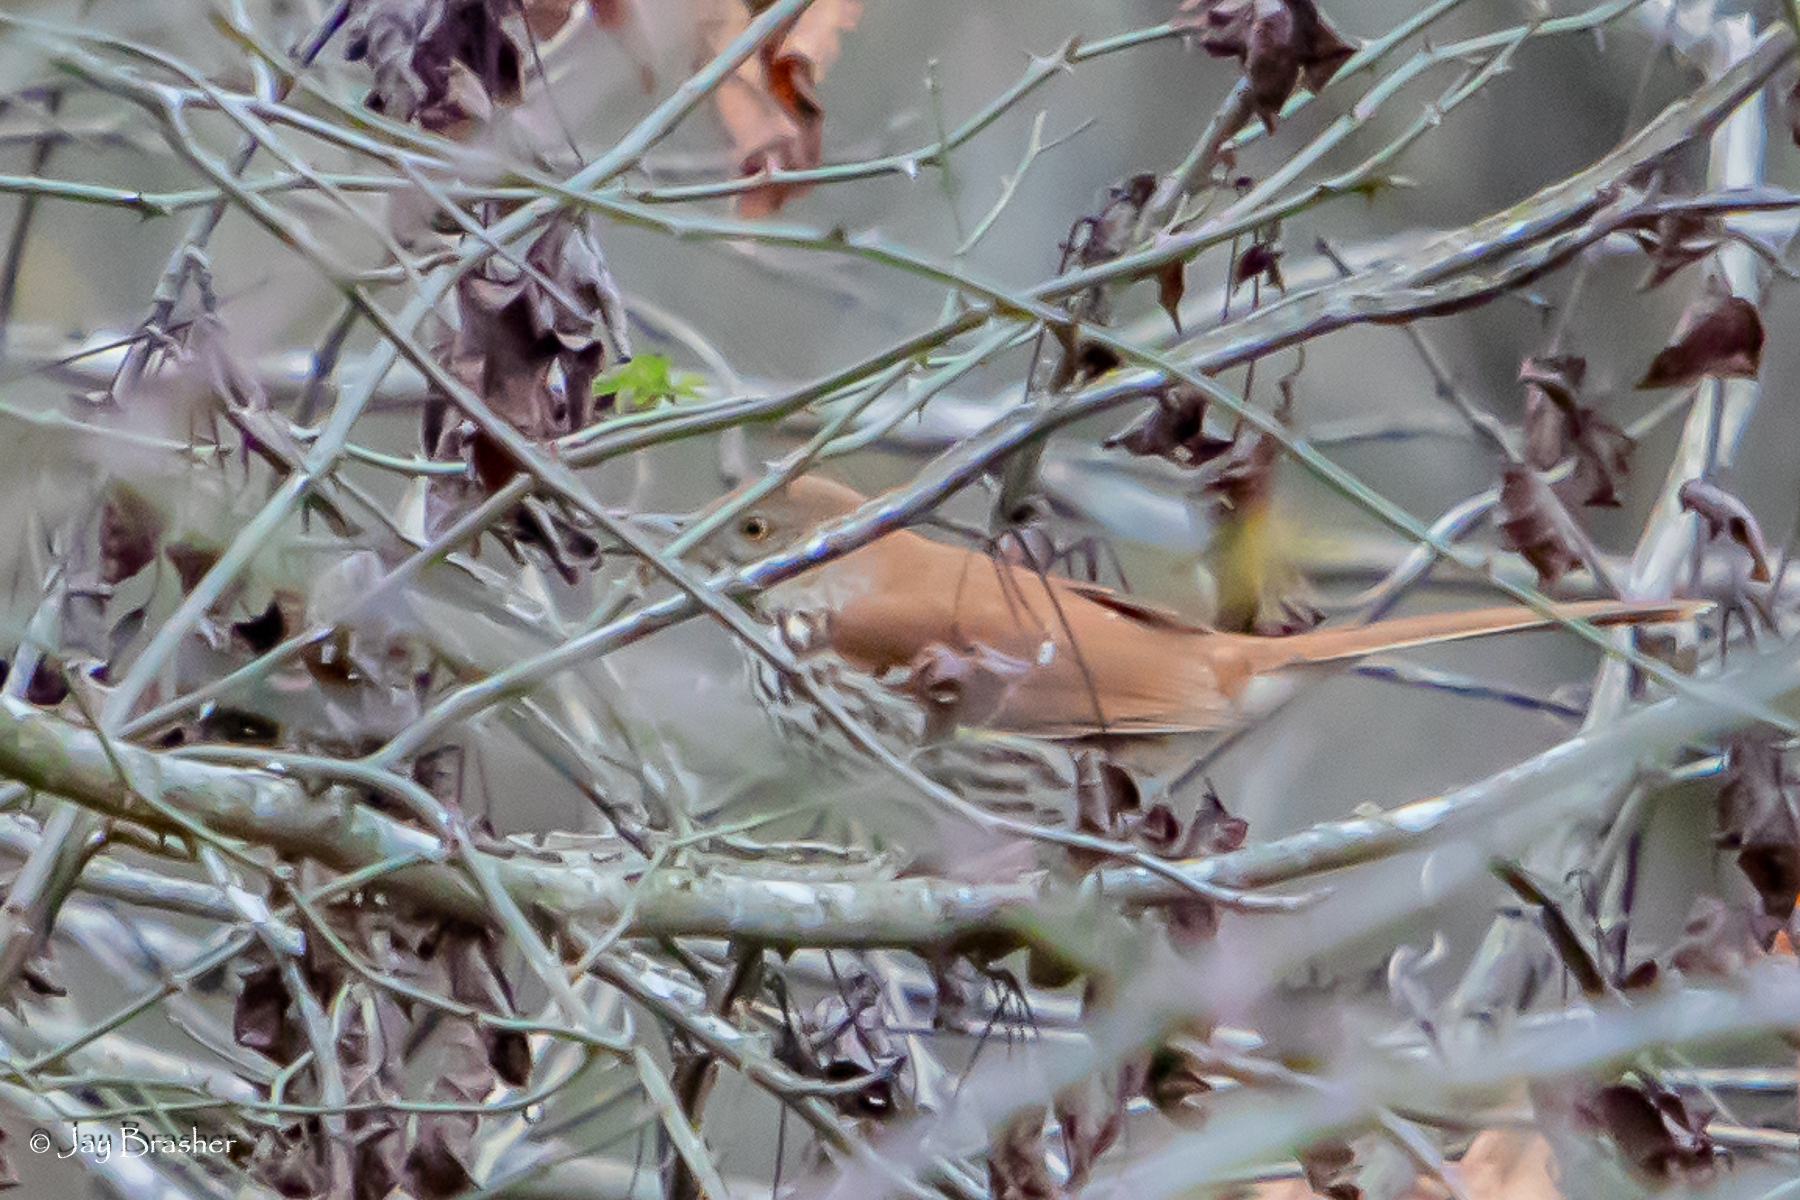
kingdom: Animalia
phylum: Chordata
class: Aves
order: Passeriformes
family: Mimidae
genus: Toxostoma
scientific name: Toxostoma rufum
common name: Brown thrasher
